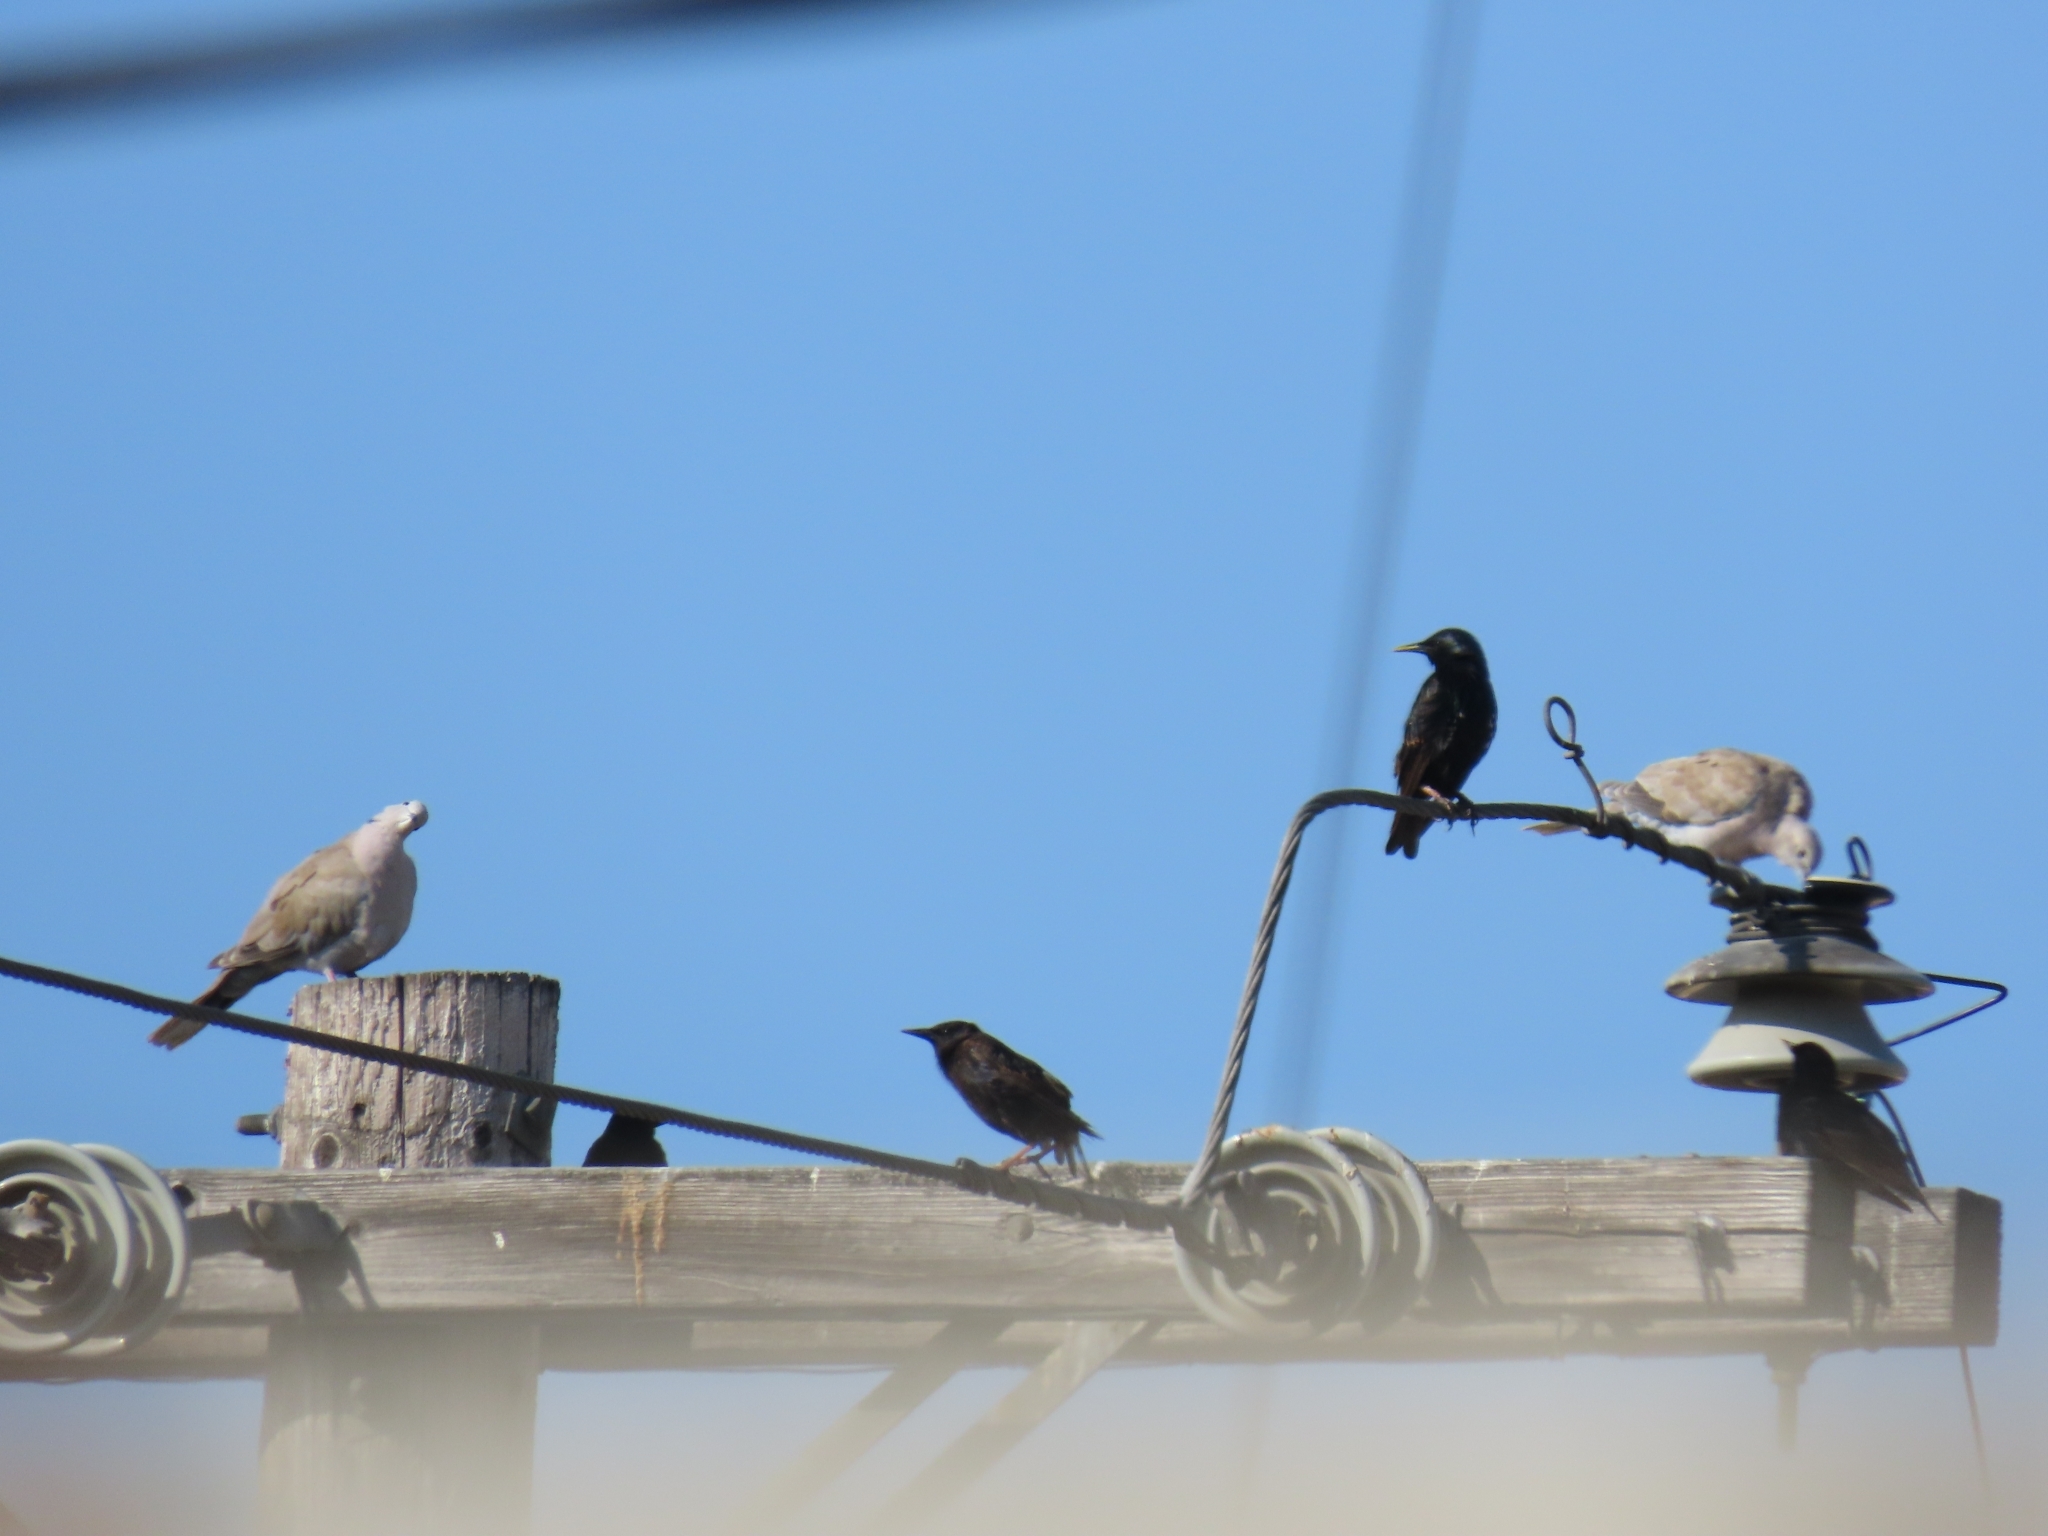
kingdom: Animalia
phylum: Chordata
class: Aves
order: Passeriformes
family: Sturnidae
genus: Sturnus
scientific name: Sturnus vulgaris
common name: Common starling
